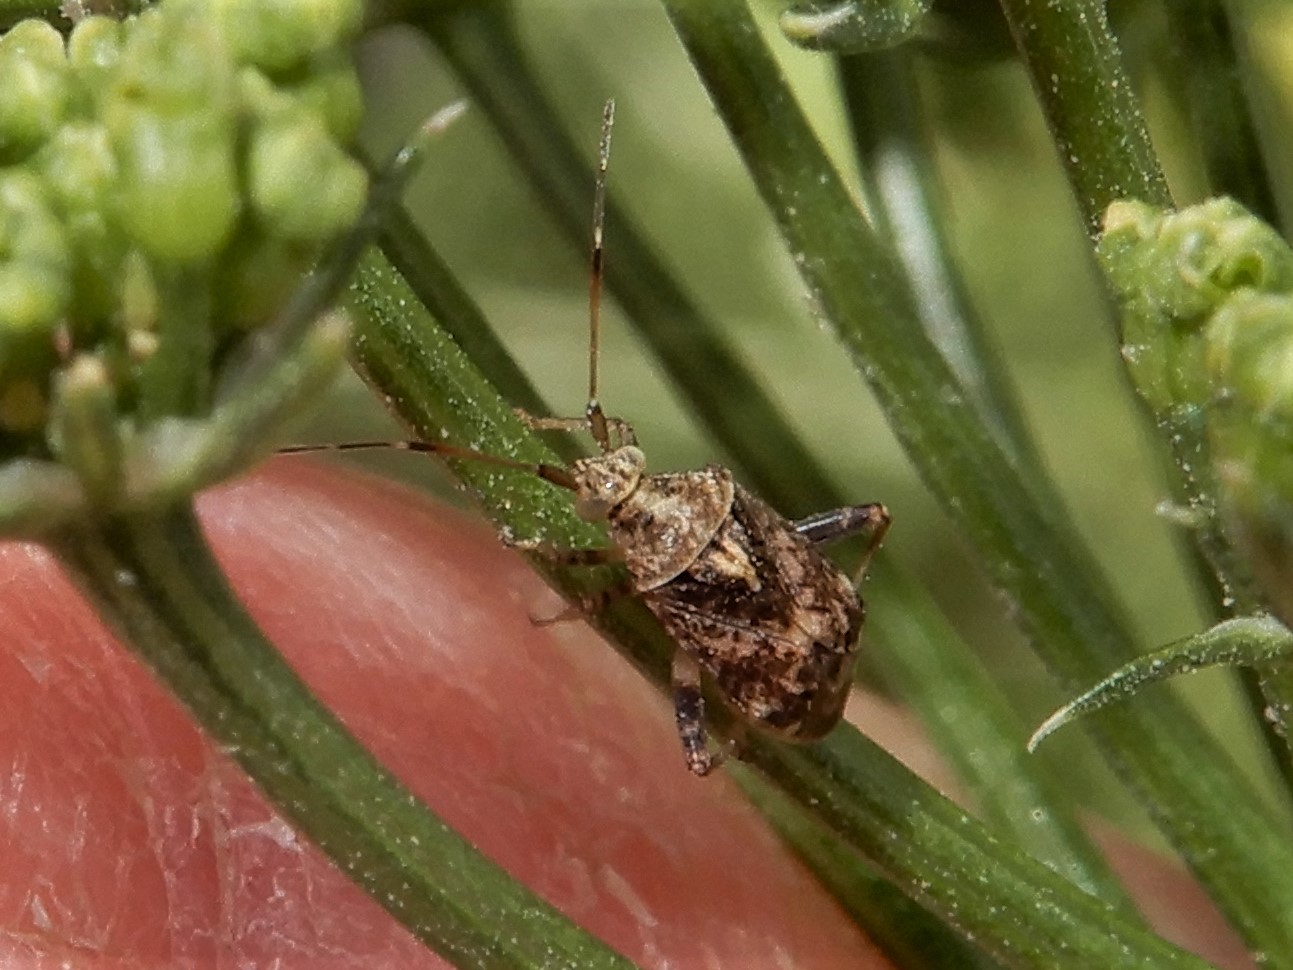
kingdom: Animalia
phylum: Arthropoda
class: Insecta
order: Hemiptera
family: Miridae
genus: Sidnia
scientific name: Sidnia kinbergi
